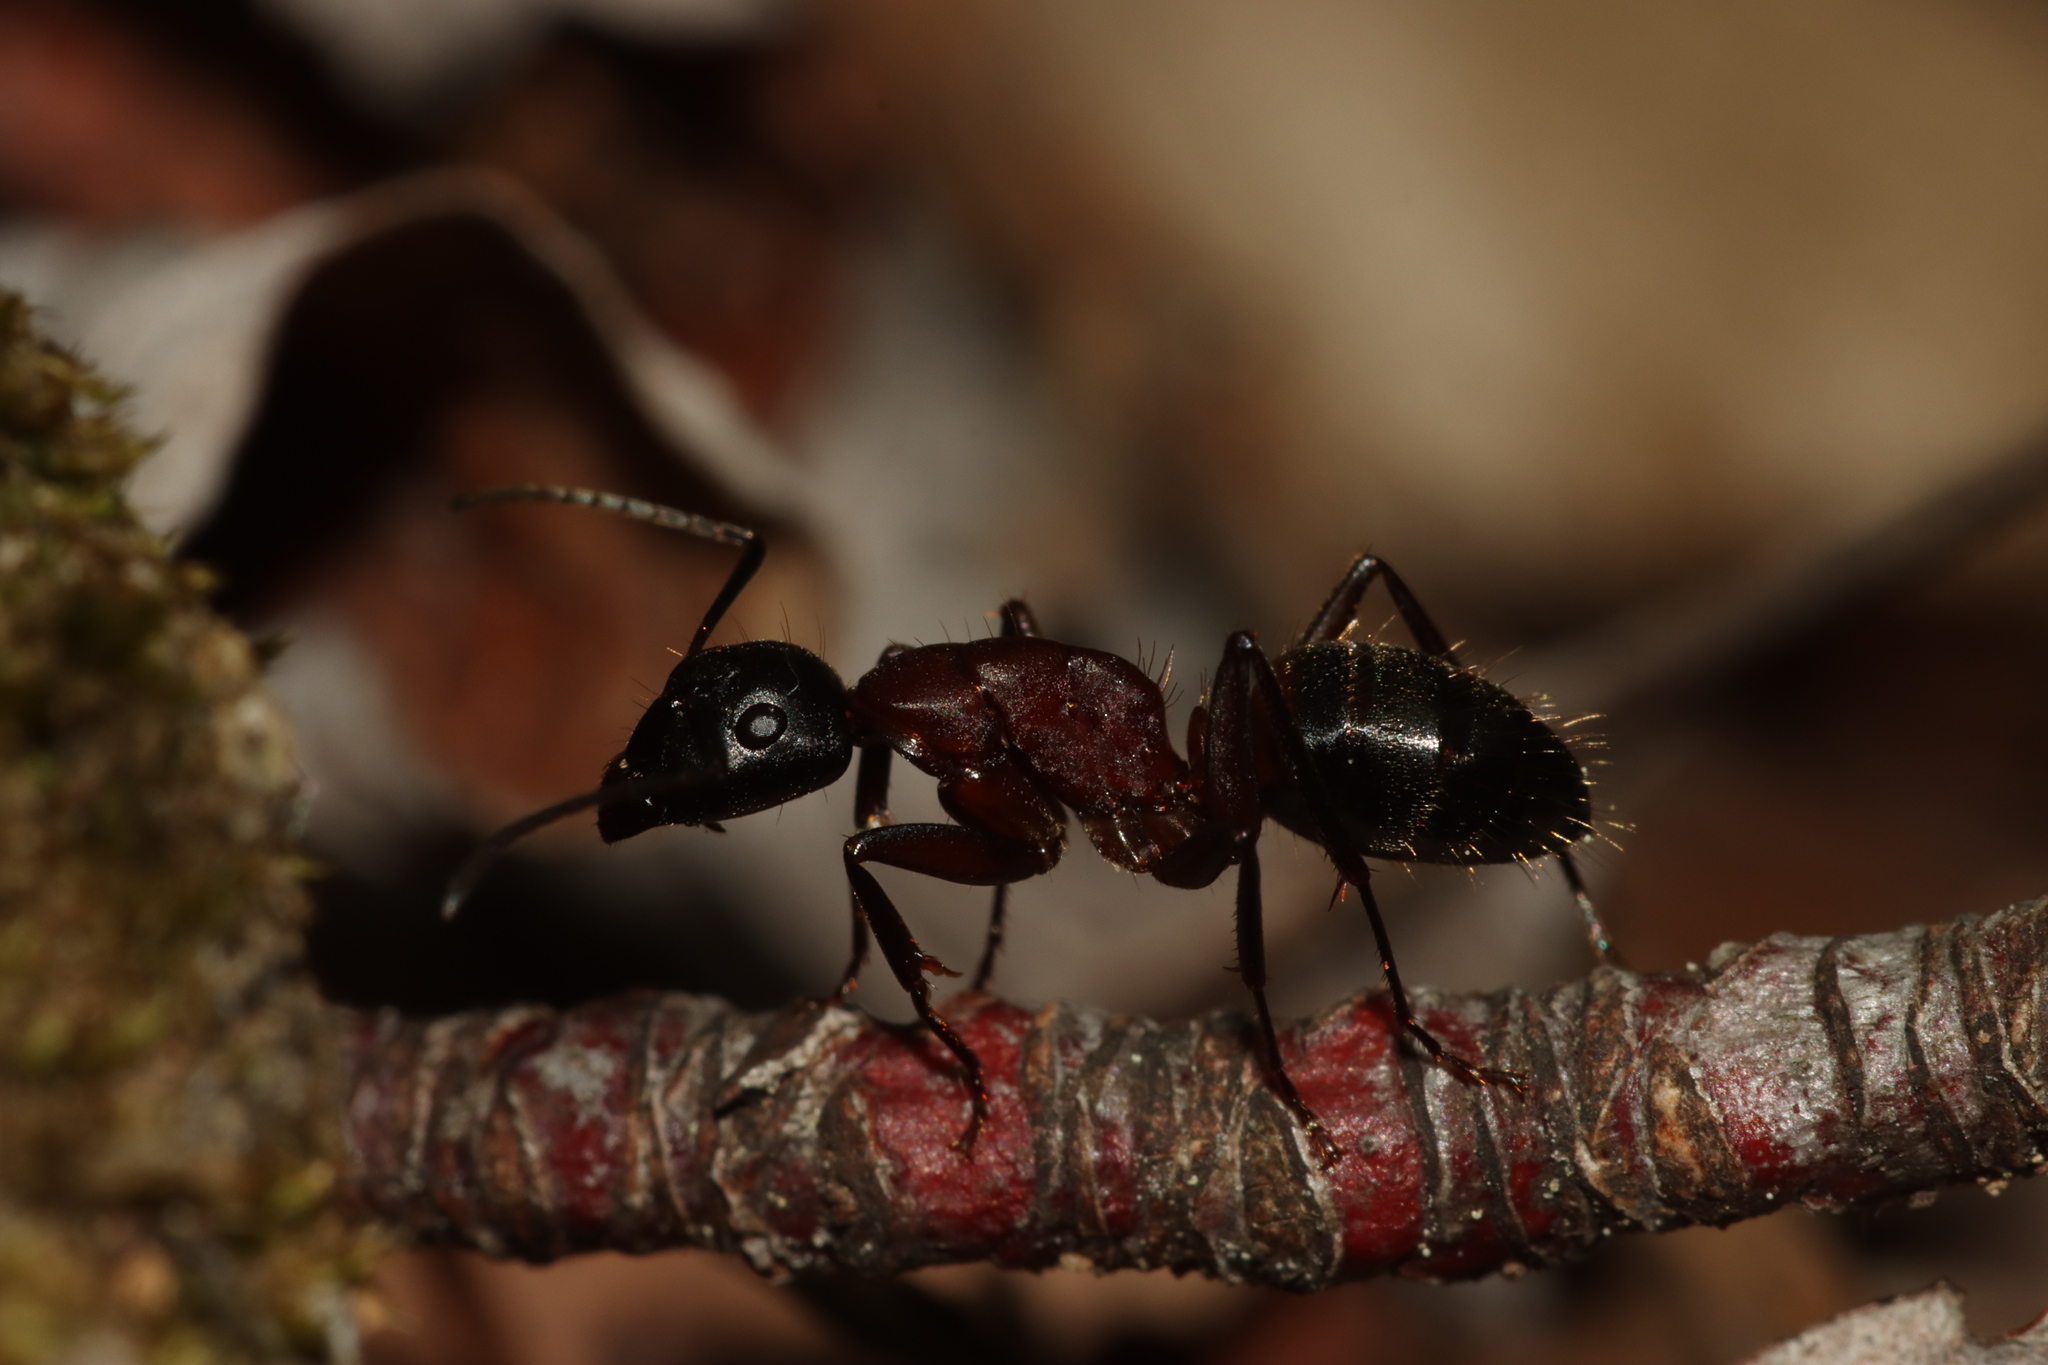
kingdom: Animalia
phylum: Arthropoda
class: Insecta
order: Hymenoptera
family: Formicidae
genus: Camponotus
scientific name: Camponotus ligniperdus
